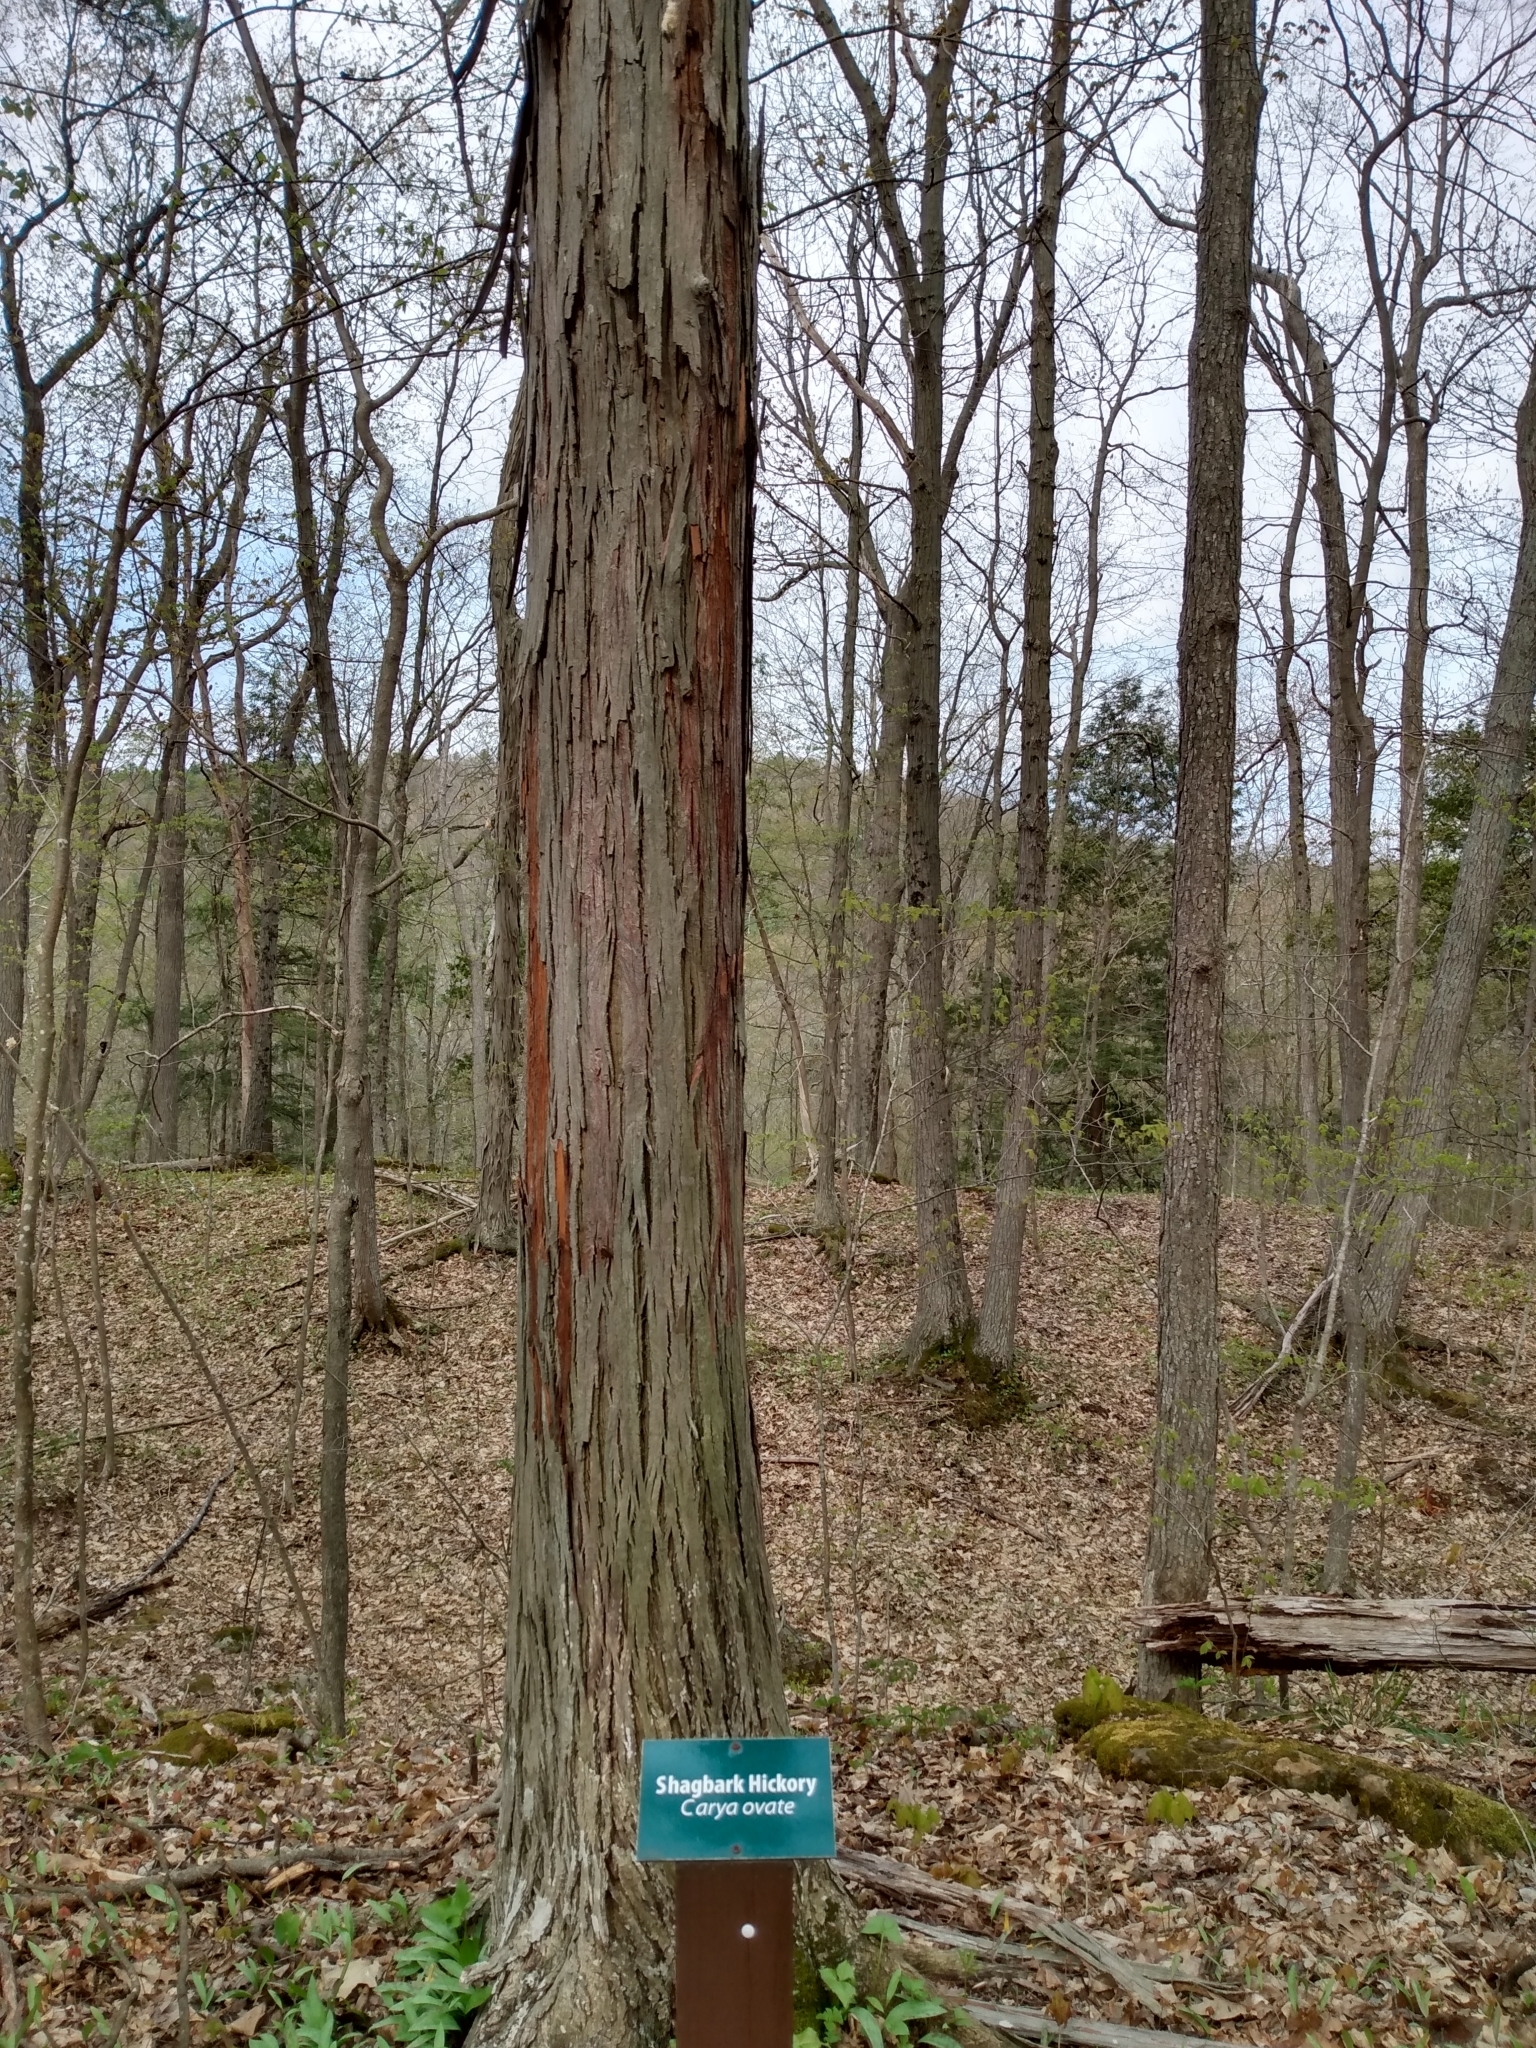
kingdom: Plantae
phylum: Tracheophyta
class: Magnoliopsida
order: Fagales
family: Juglandaceae
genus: Carya
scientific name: Carya ovata
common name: Shagbark hickory
